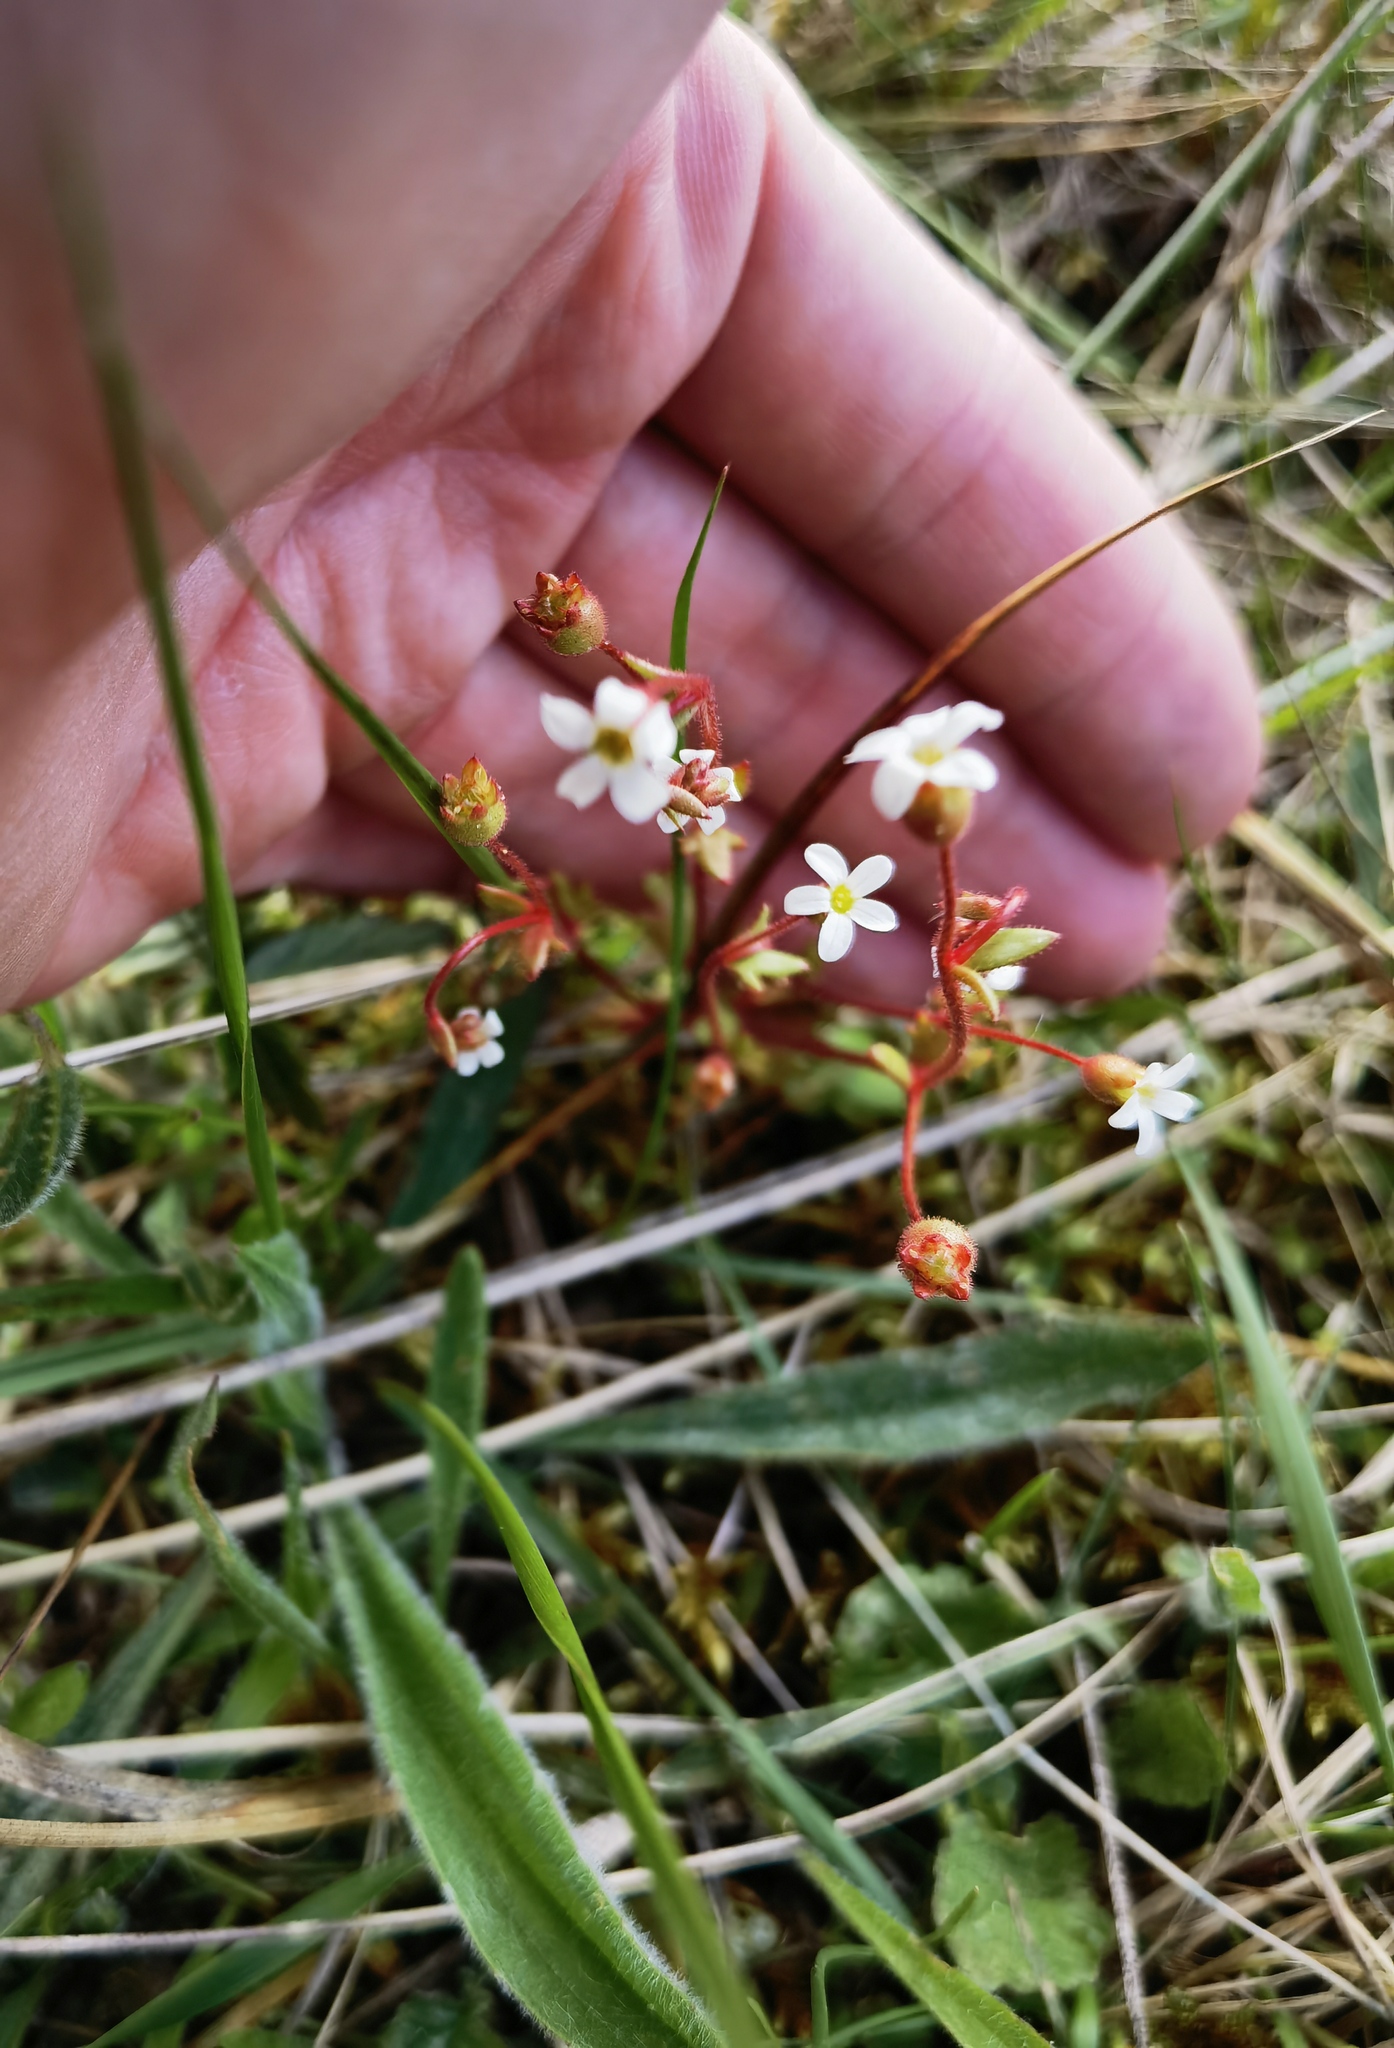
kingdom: Plantae
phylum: Tracheophyta
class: Magnoliopsida
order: Saxifragales
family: Saxifragaceae
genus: Saxifraga
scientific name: Saxifraga tridactylites
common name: Rue-leaved saxifrage
